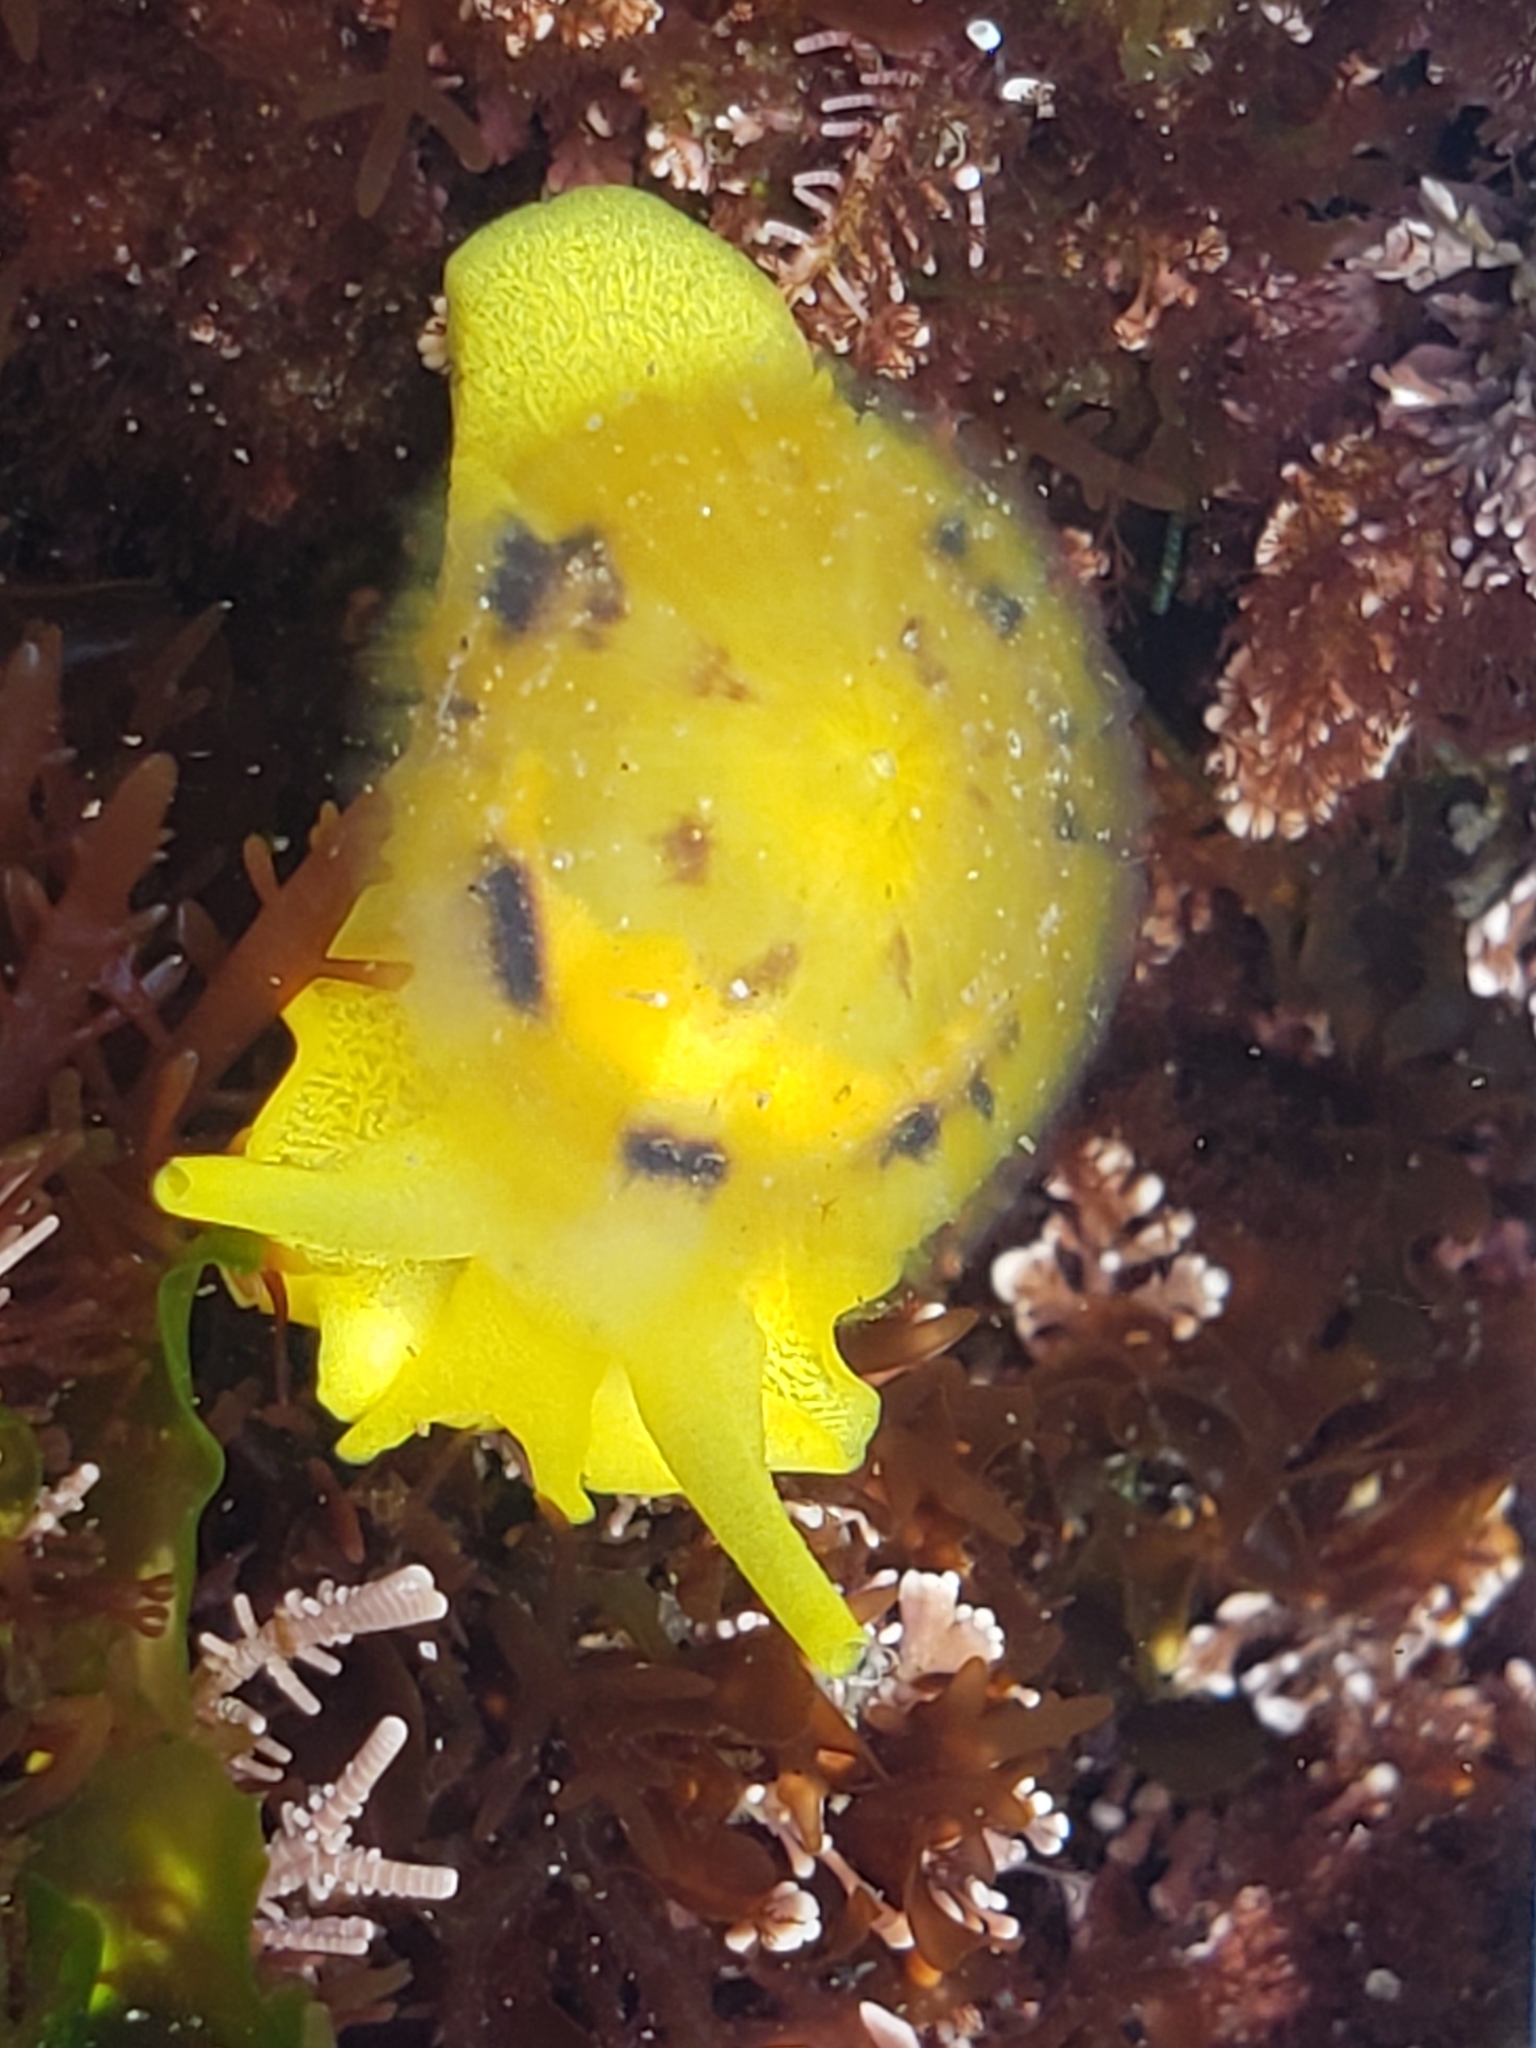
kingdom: Animalia
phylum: Mollusca
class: Gastropoda
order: Umbraculida
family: Tylodinidae
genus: Tylodina
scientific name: Tylodina fungina
